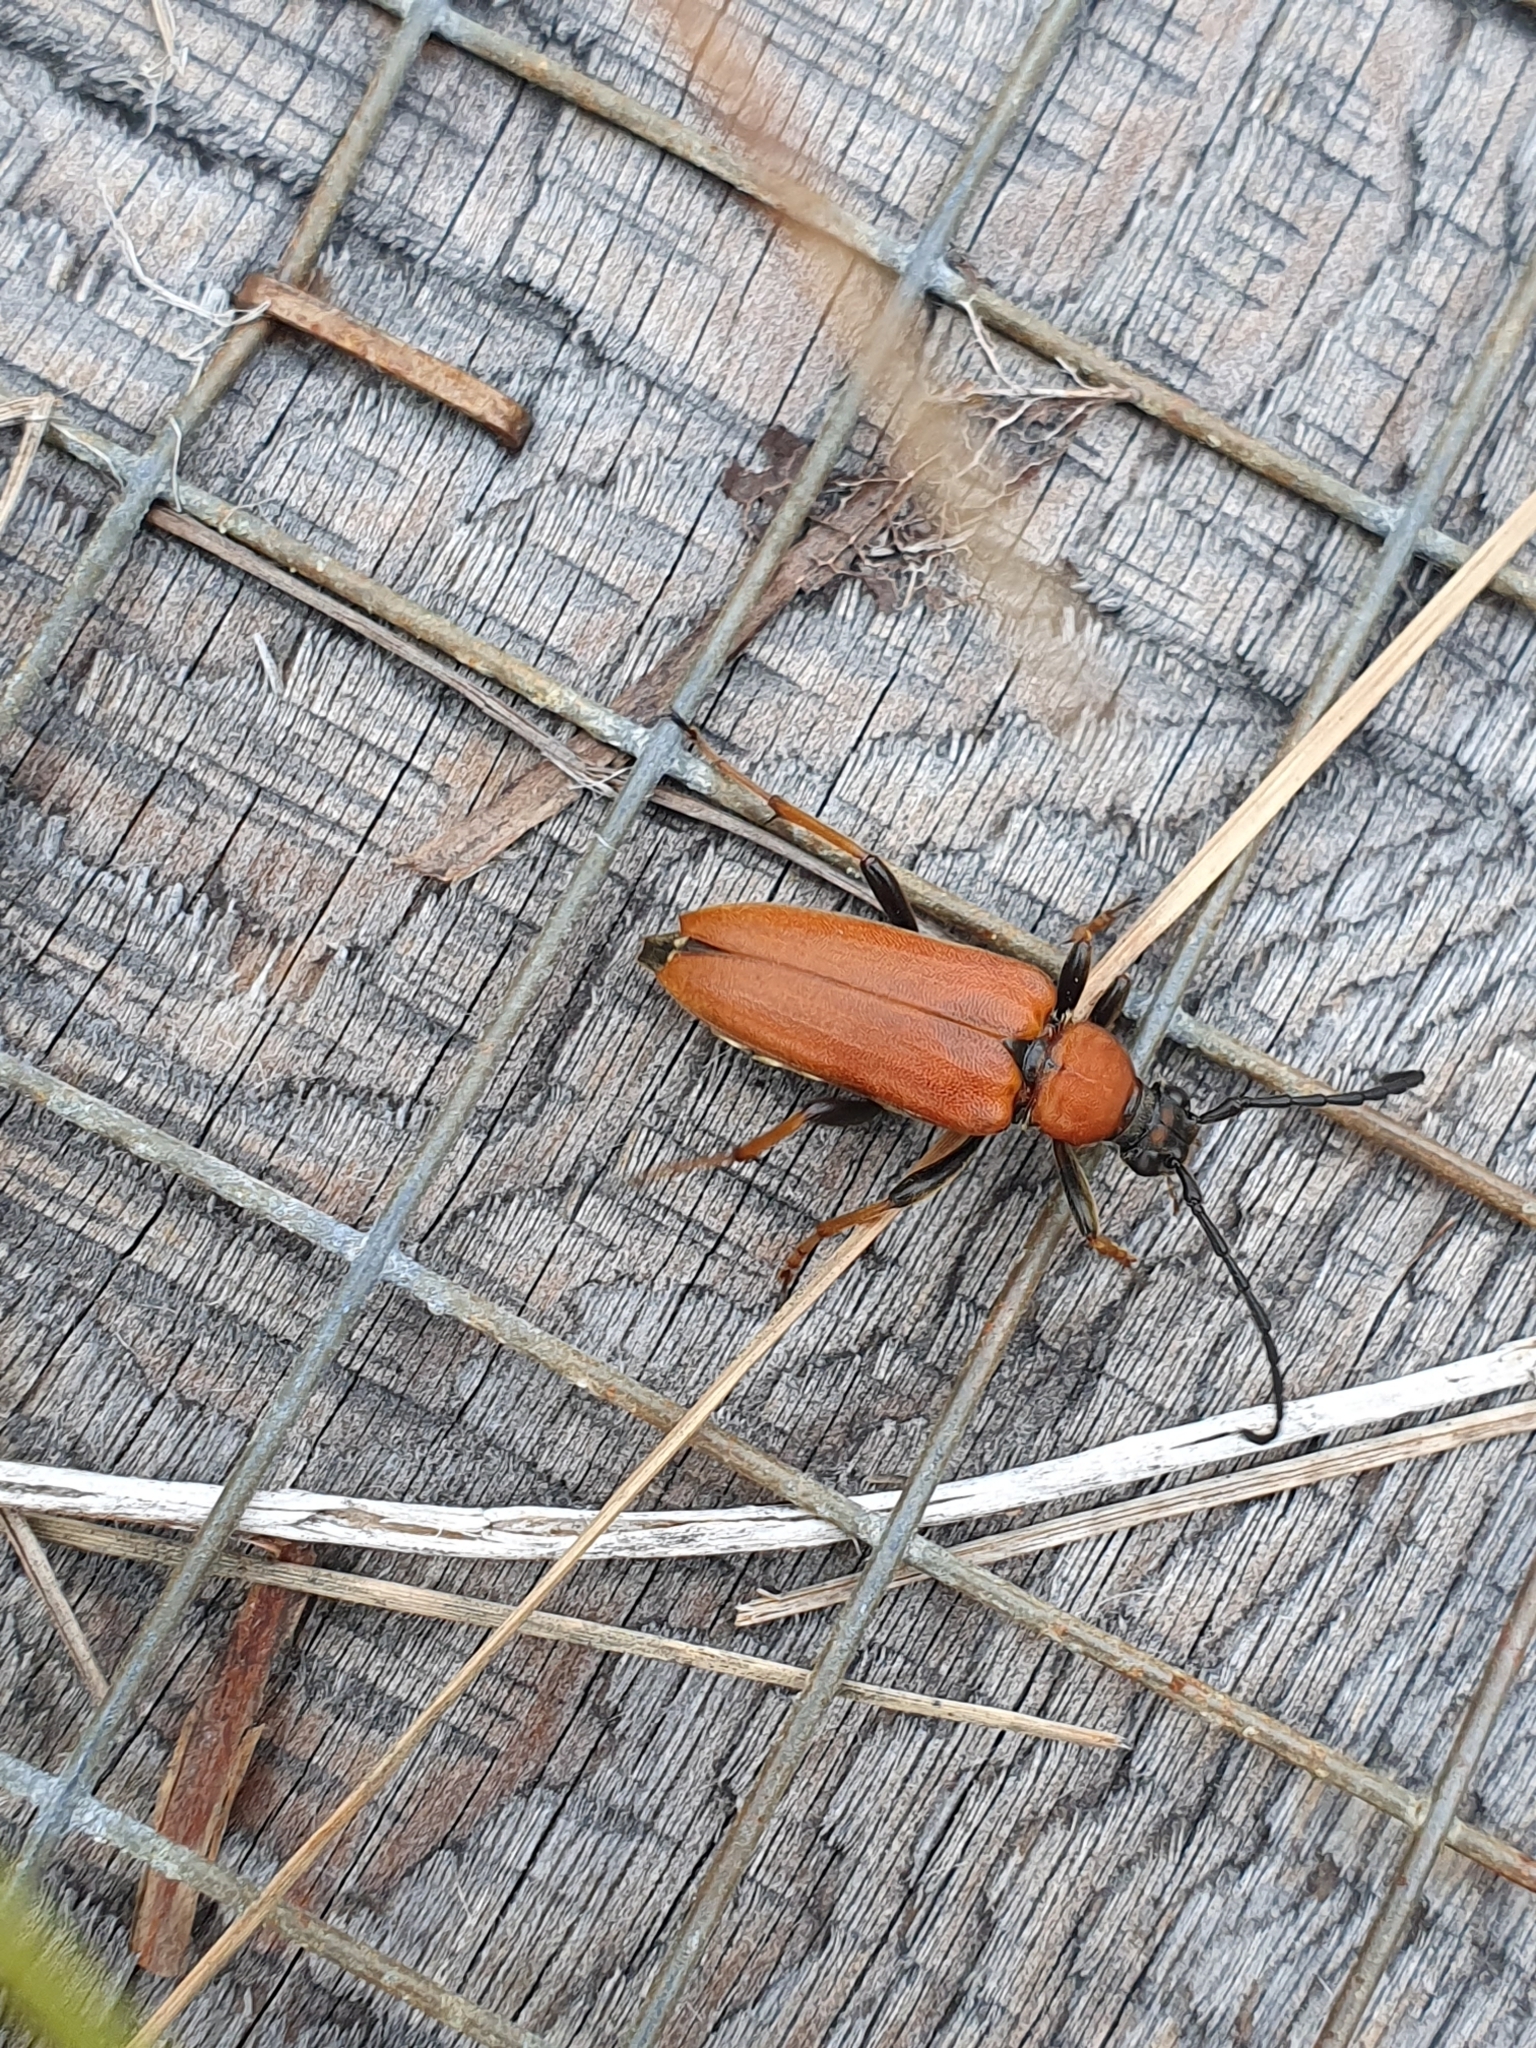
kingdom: Animalia
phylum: Arthropoda
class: Insecta
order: Coleoptera
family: Cerambycidae
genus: Stictoleptura
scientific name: Stictoleptura rubra
